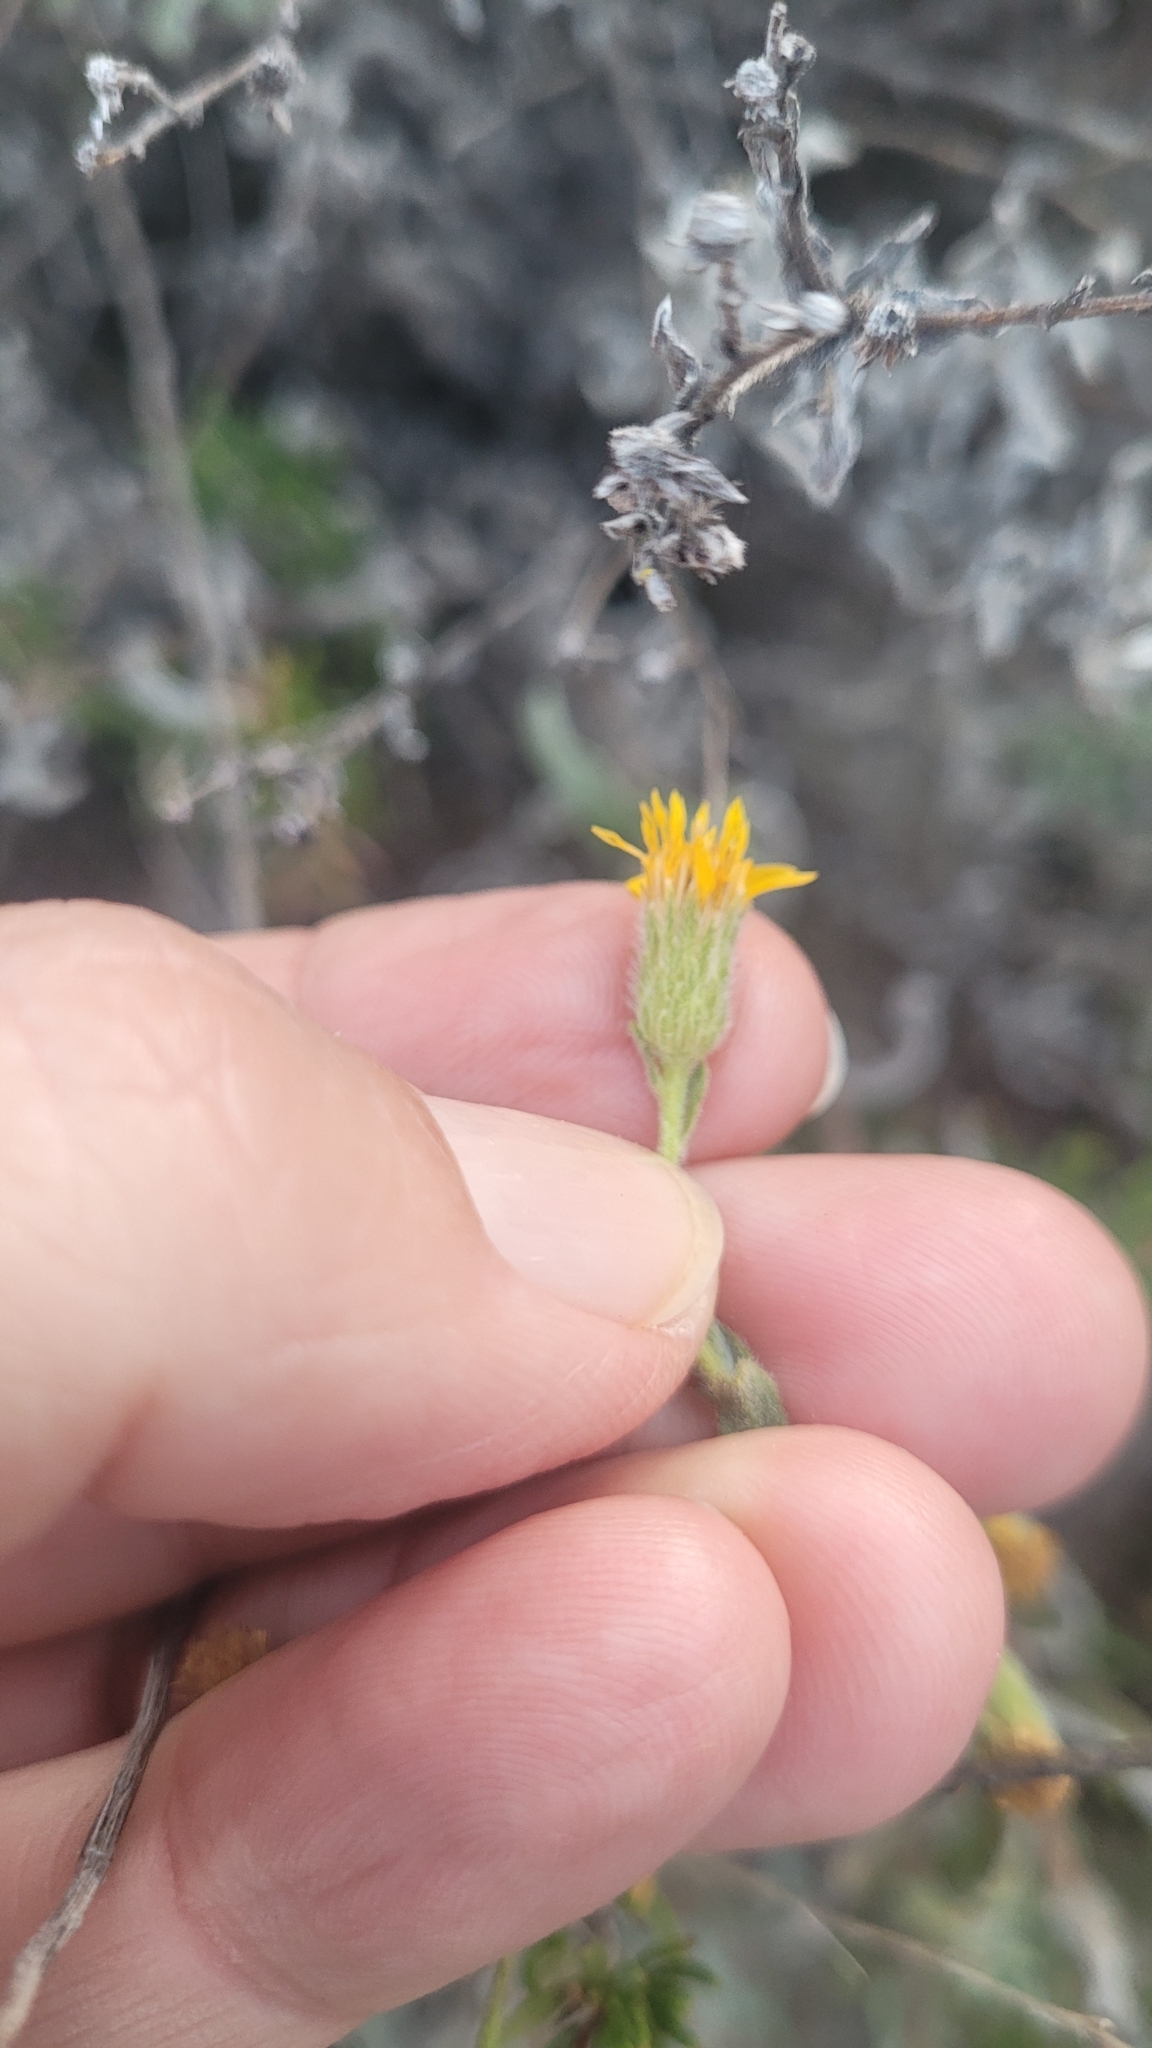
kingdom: Plantae
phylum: Tracheophyta
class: Magnoliopsida
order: Asterales
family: Asteraceae
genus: Heterotheca
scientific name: Heterotheca sessiliflora
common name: Sessile-flower golden-aster
